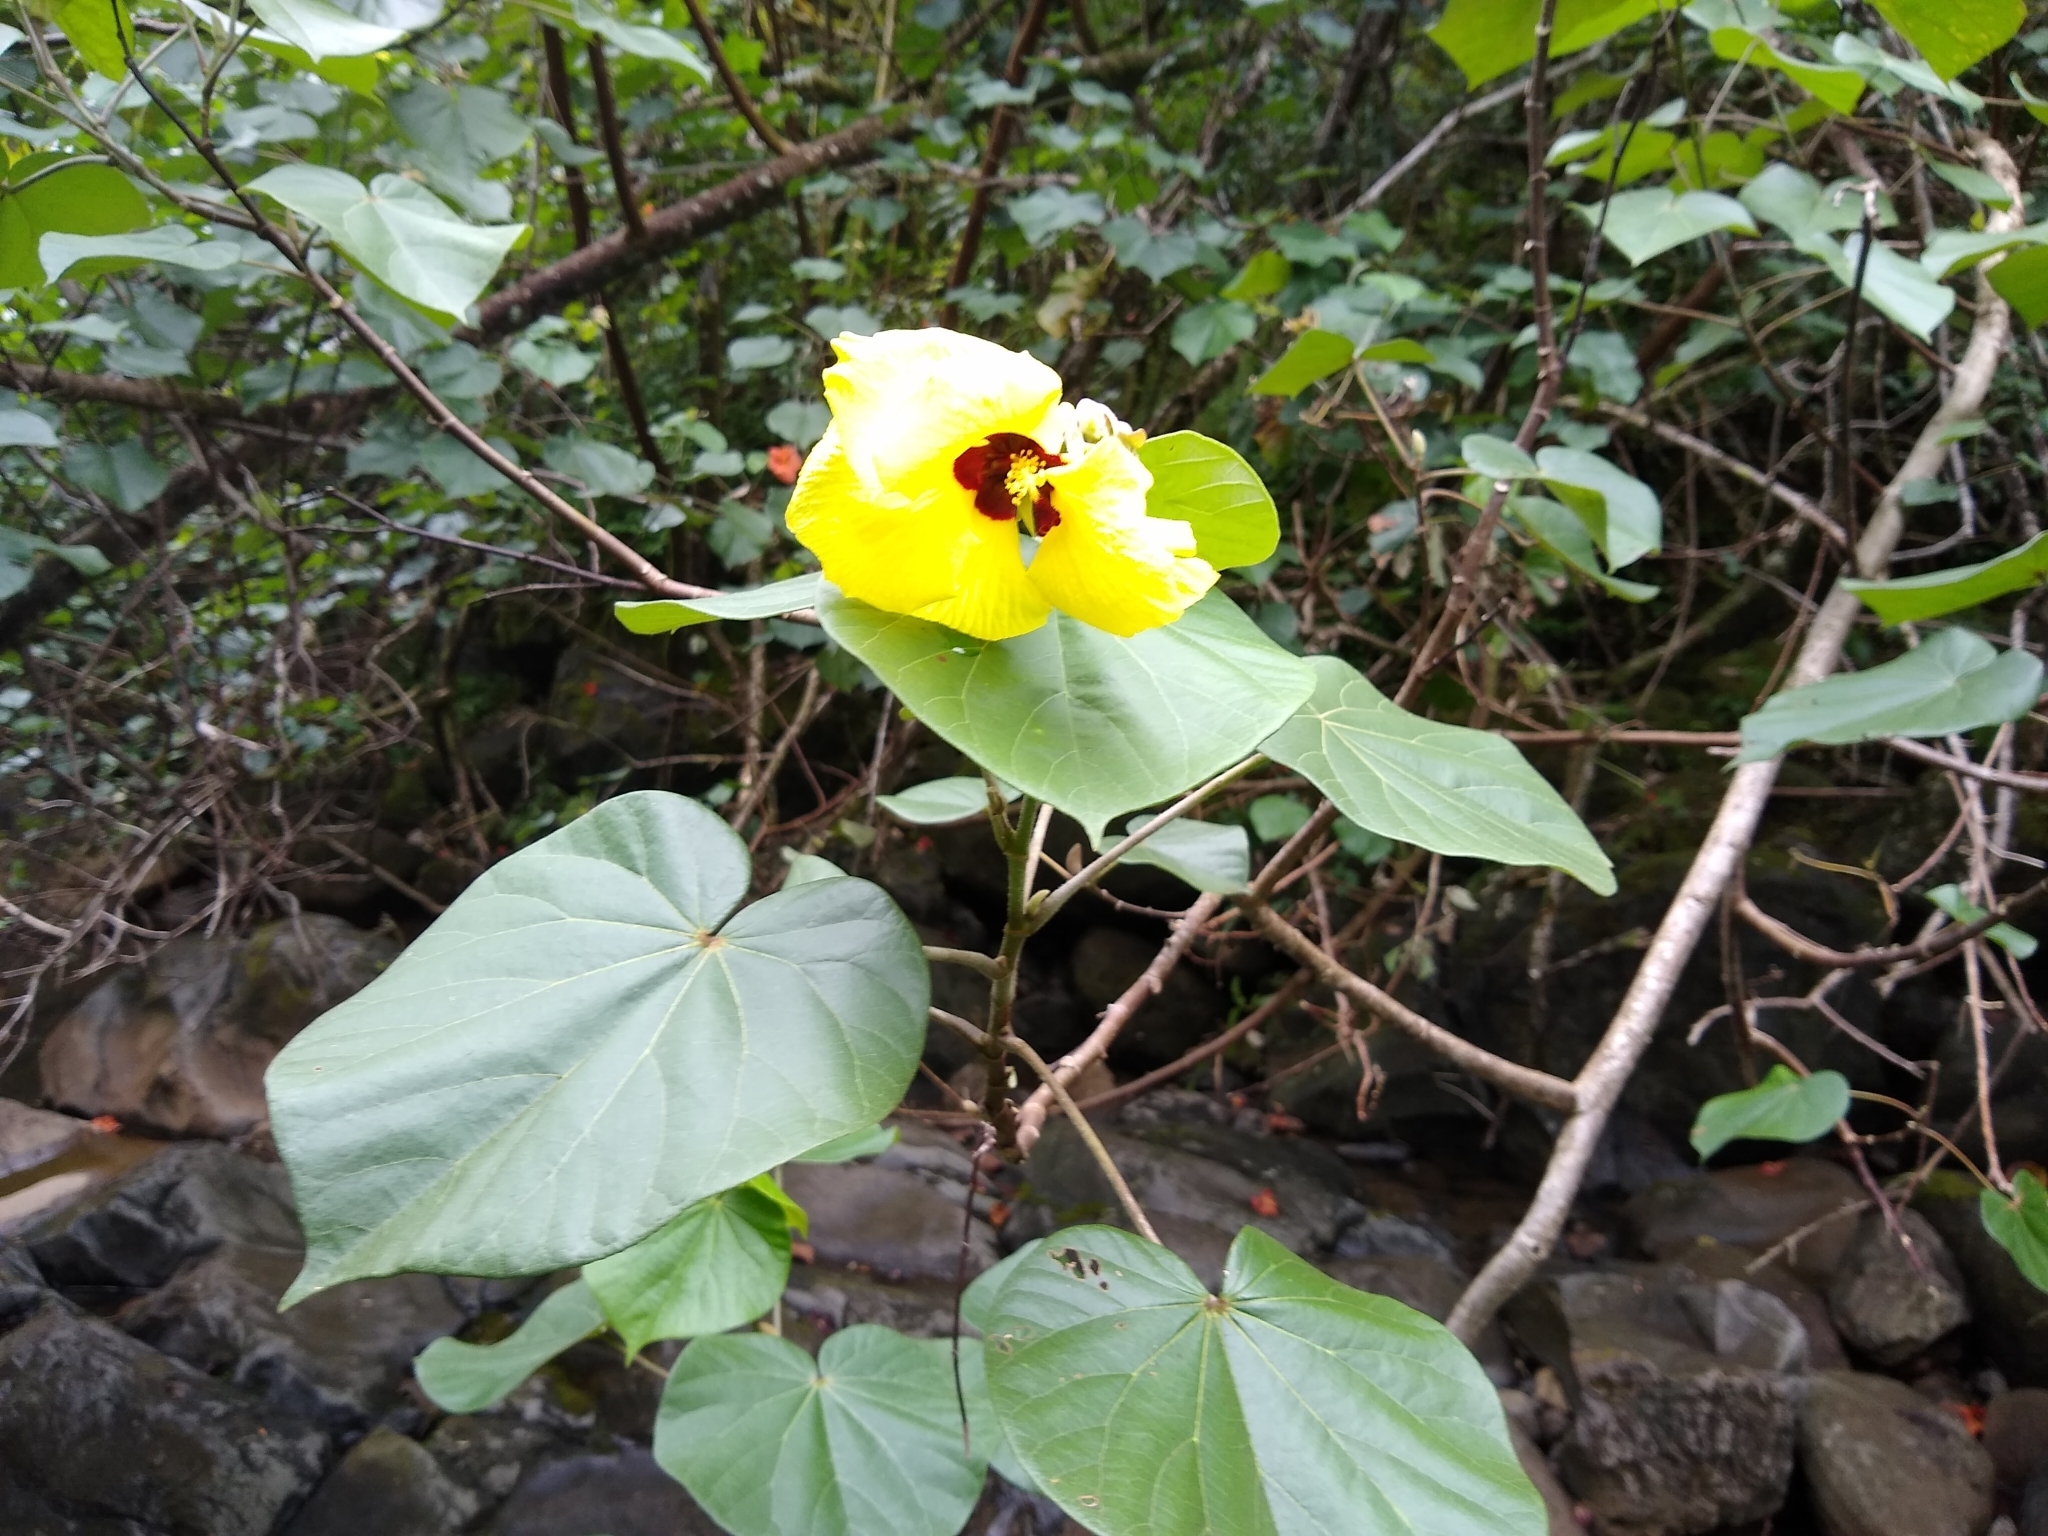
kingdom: Plantae
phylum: Tracheophyta
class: Magnoliopsida
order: Malvales
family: Malvaceae
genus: Talipariti
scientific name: Talipariti tiliaceum
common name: Sea hibiscus
